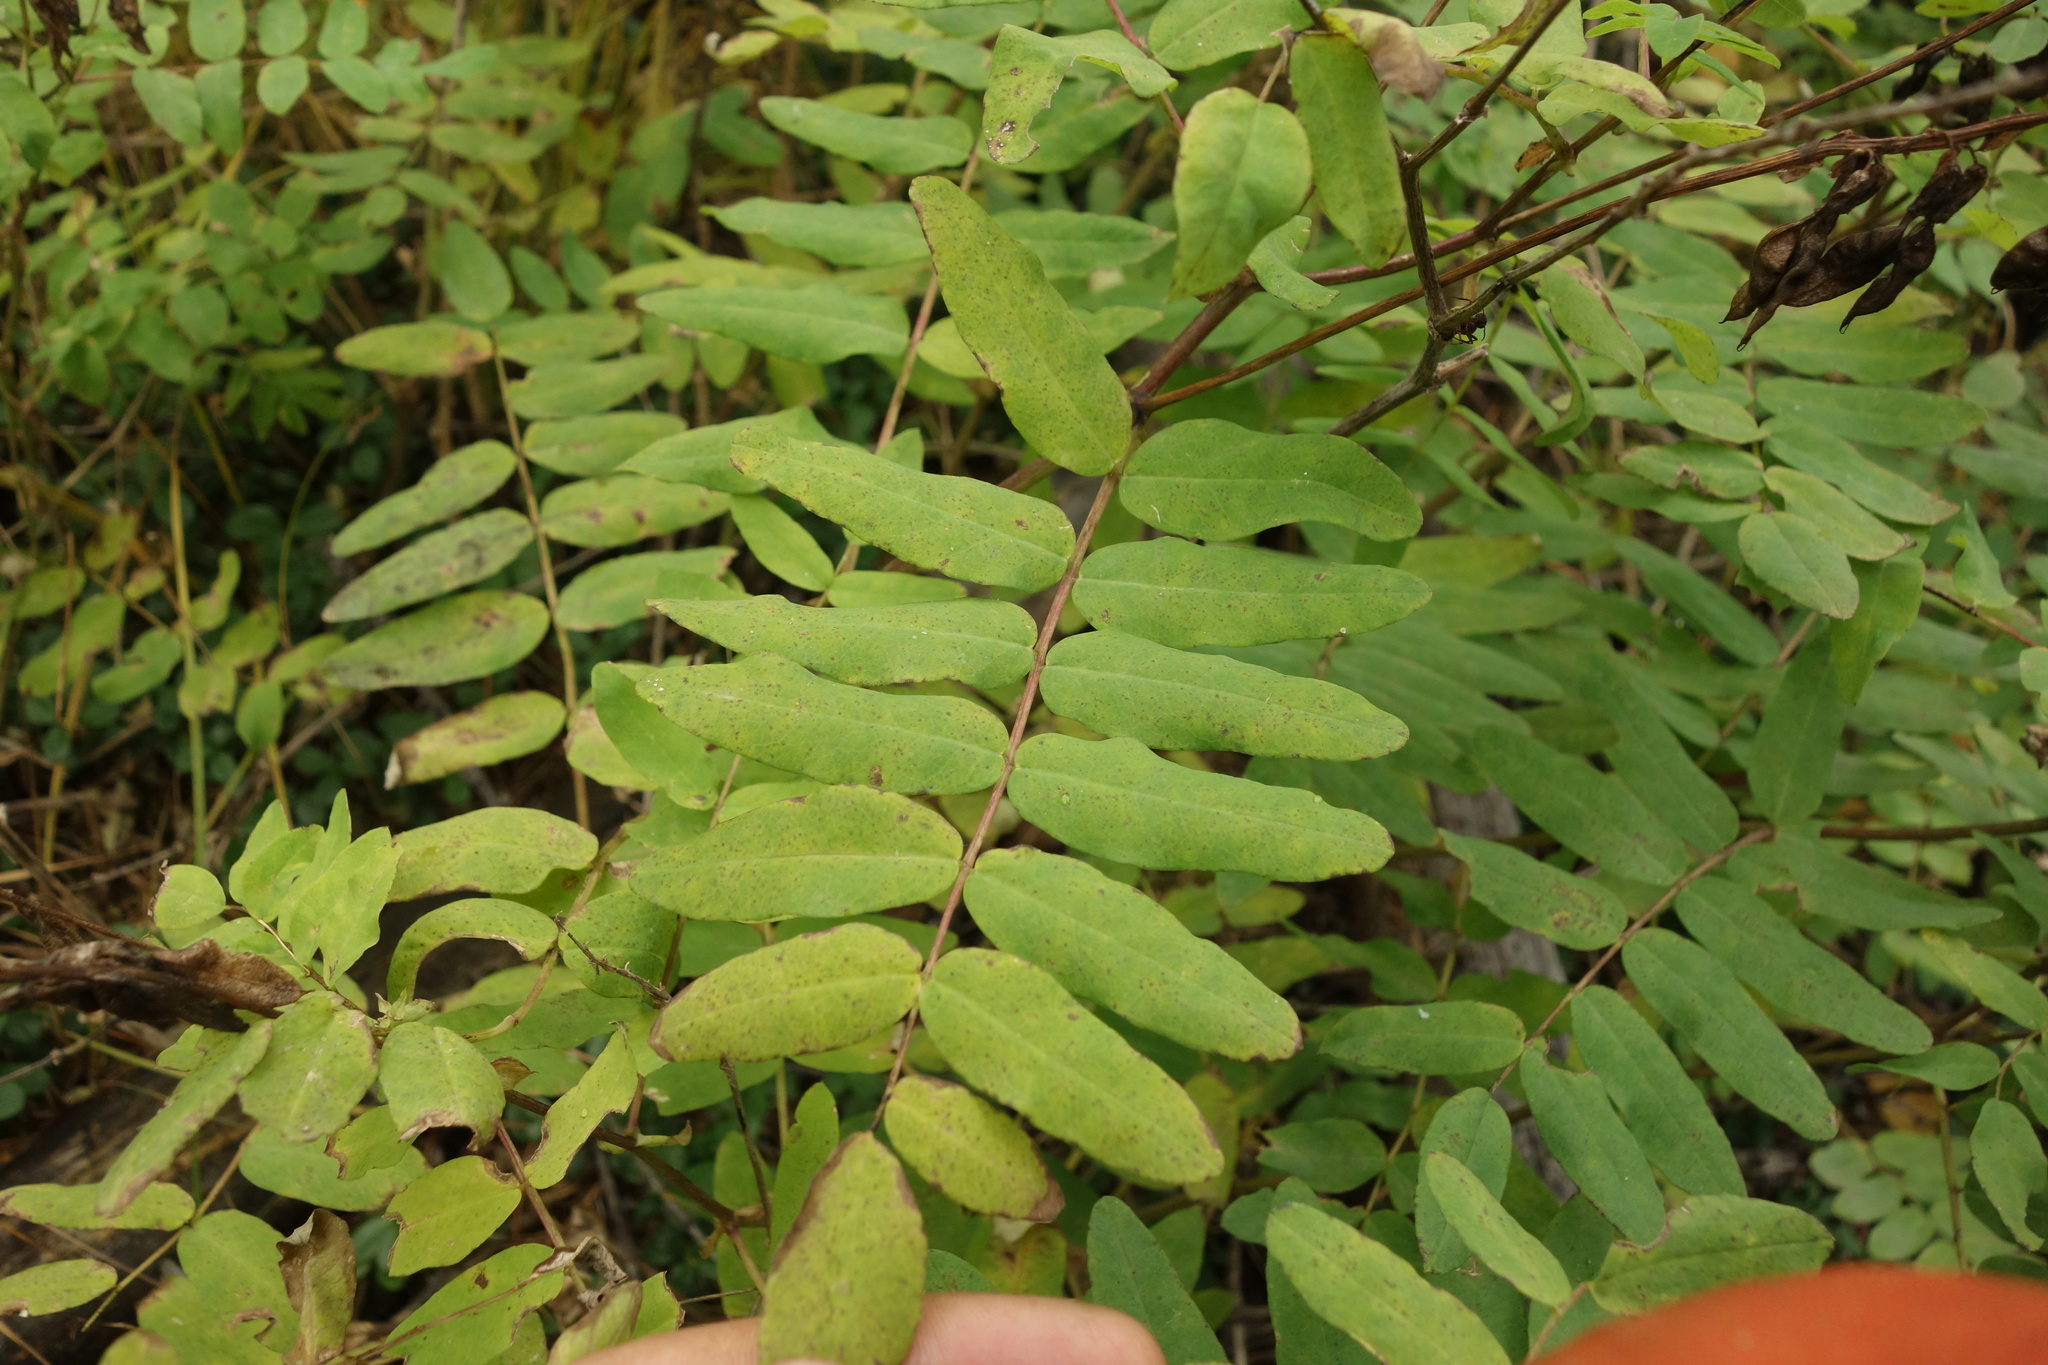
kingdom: Plantae
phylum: Tracheophyta
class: Magnoliopsida
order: Fabales
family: Fabaceae
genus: Astragalus
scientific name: Astragalus frigidus
